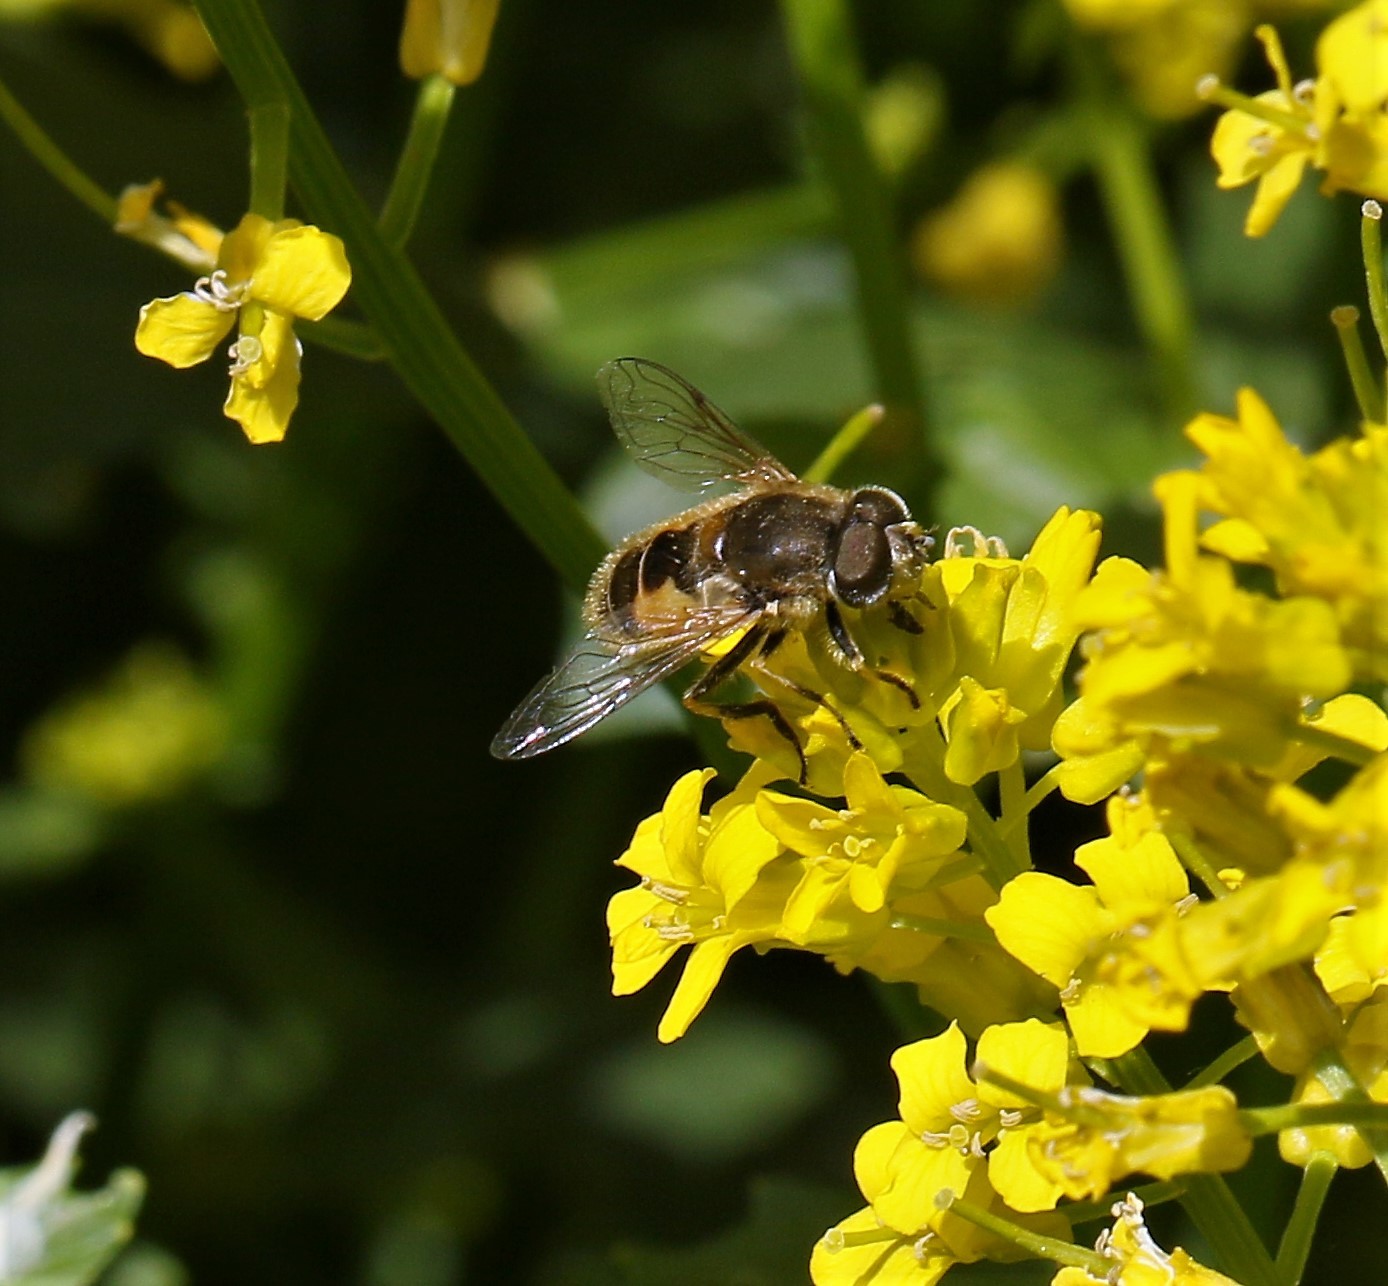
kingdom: Animalia
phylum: Arthropoda
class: Insecta
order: Diptera
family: Syrphidae
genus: Eristalis
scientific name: Eristalis arbustorum
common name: Hover fly
